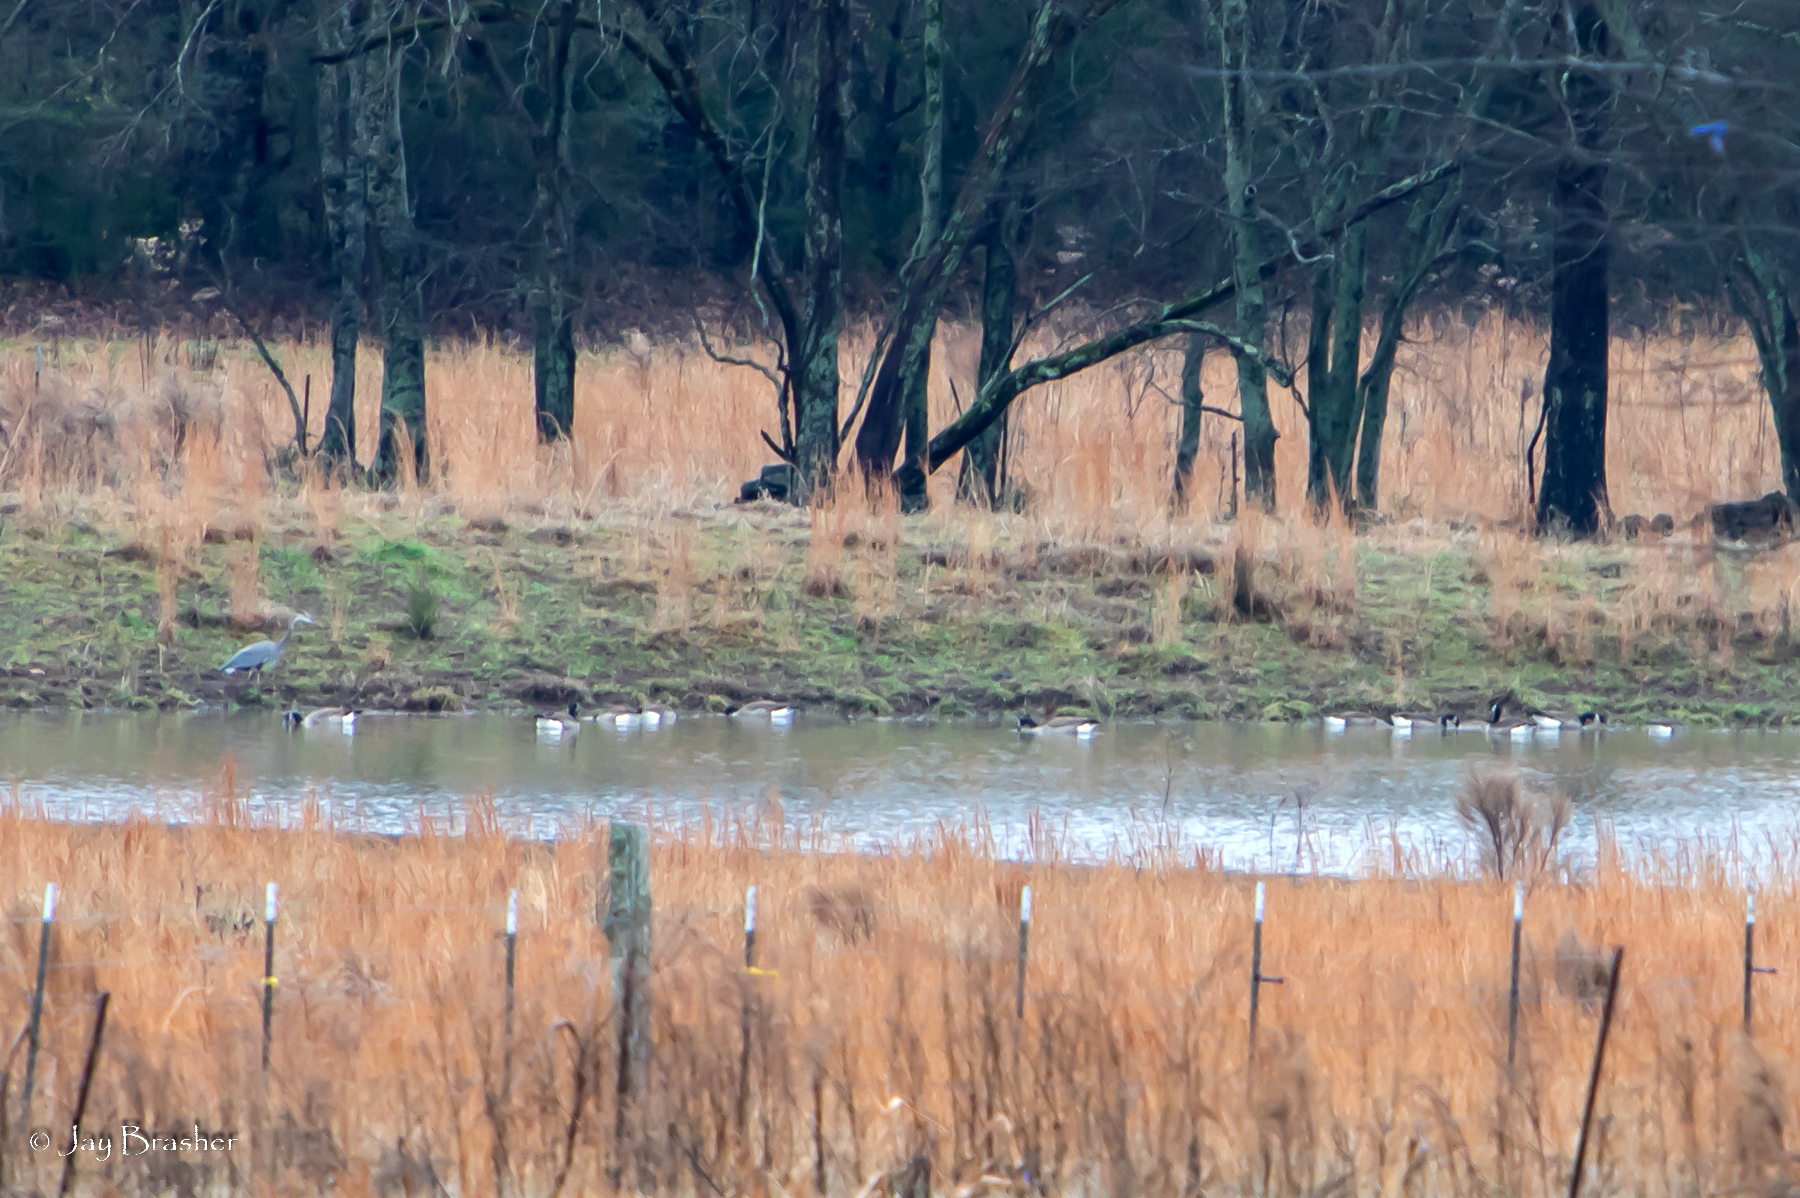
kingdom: Animalia
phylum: Chordata
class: Aves
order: Pelecaniformes
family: Ardeidae
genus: Ardea
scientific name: Ardea herodias
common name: Great blue heron
